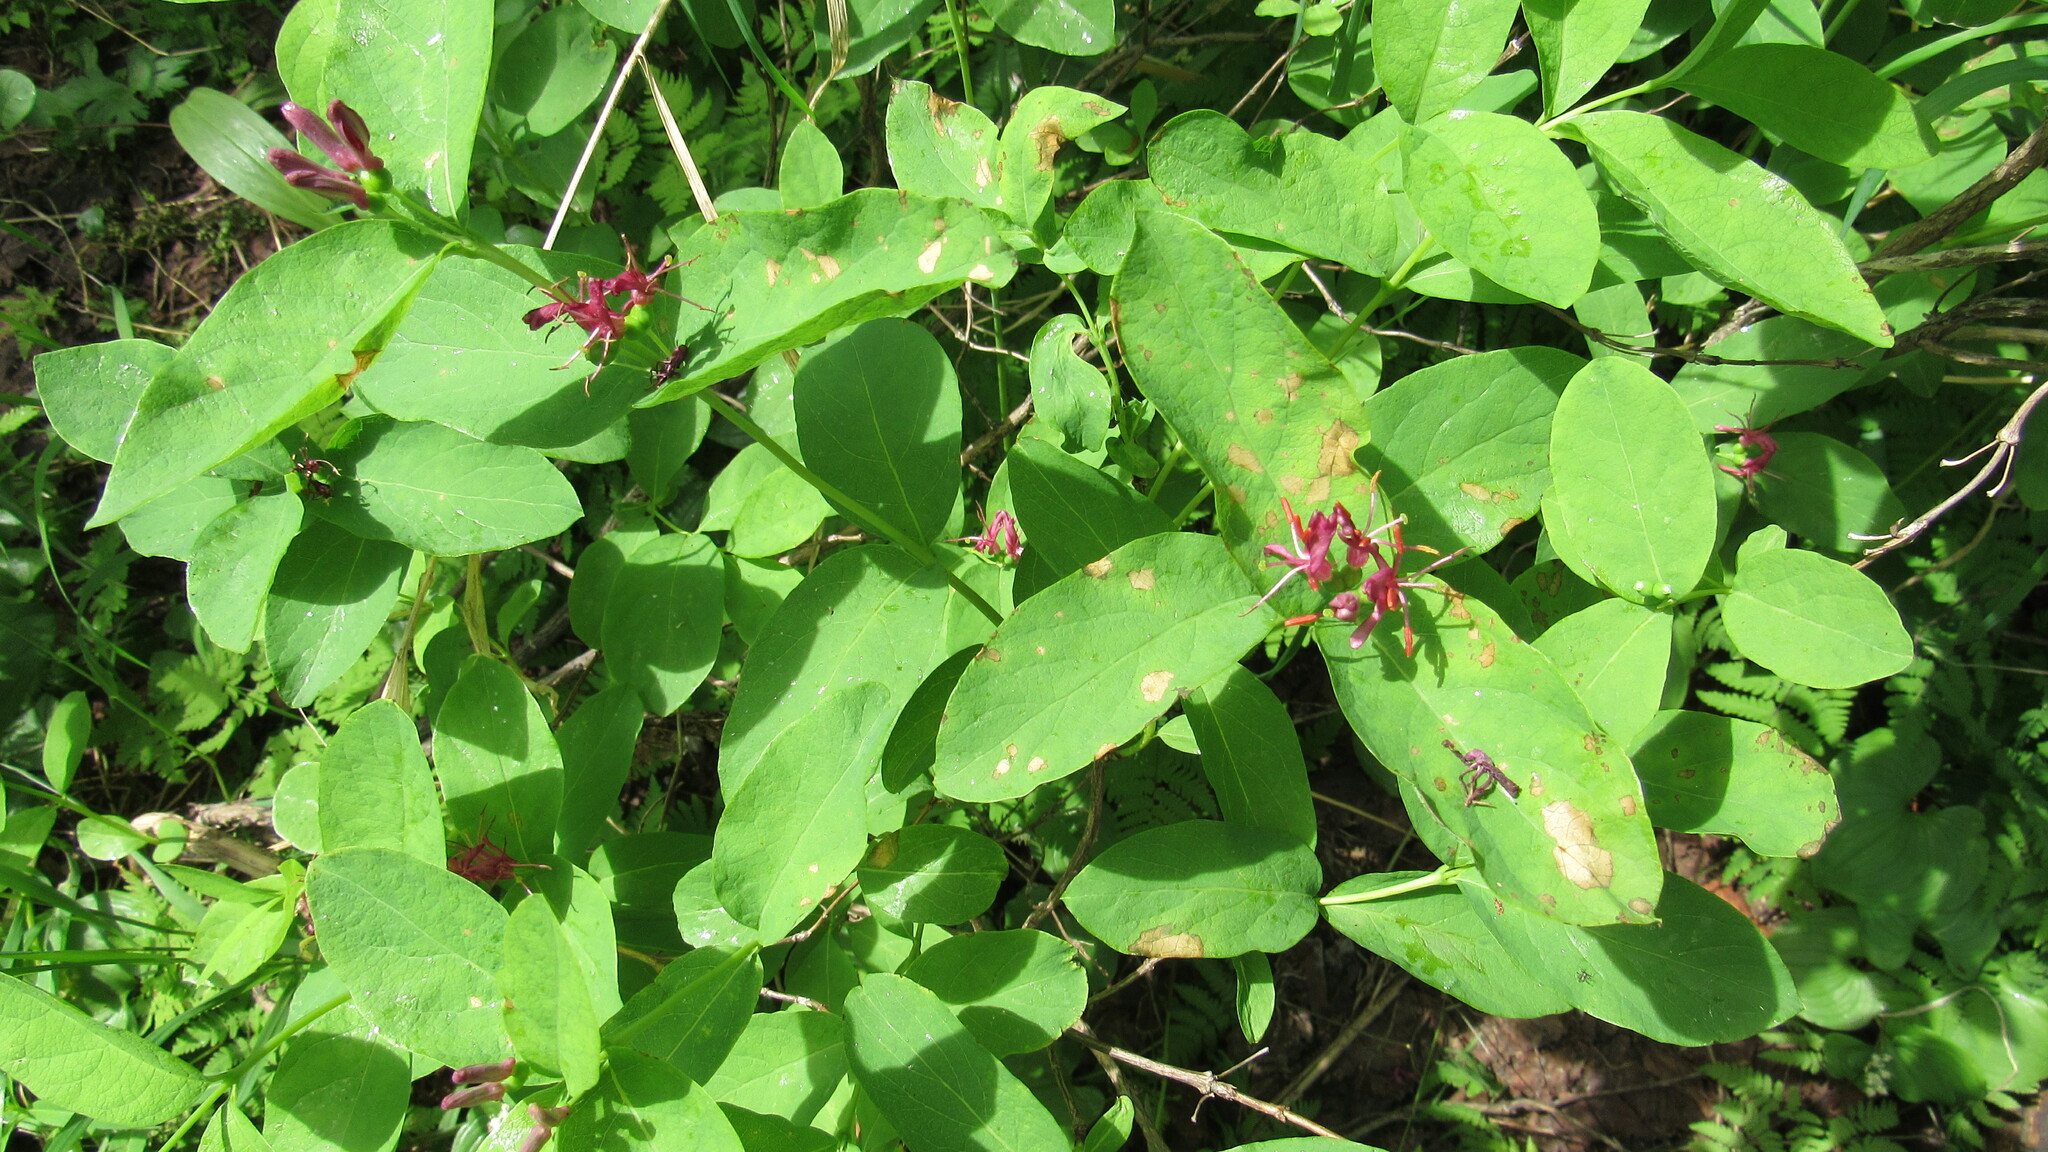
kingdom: Plantae
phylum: Tracheophyta
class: Magnoliopsida
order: Dipsacales
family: Caprifoliaceae
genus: Lonicera
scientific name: Lonicera chamissoi
